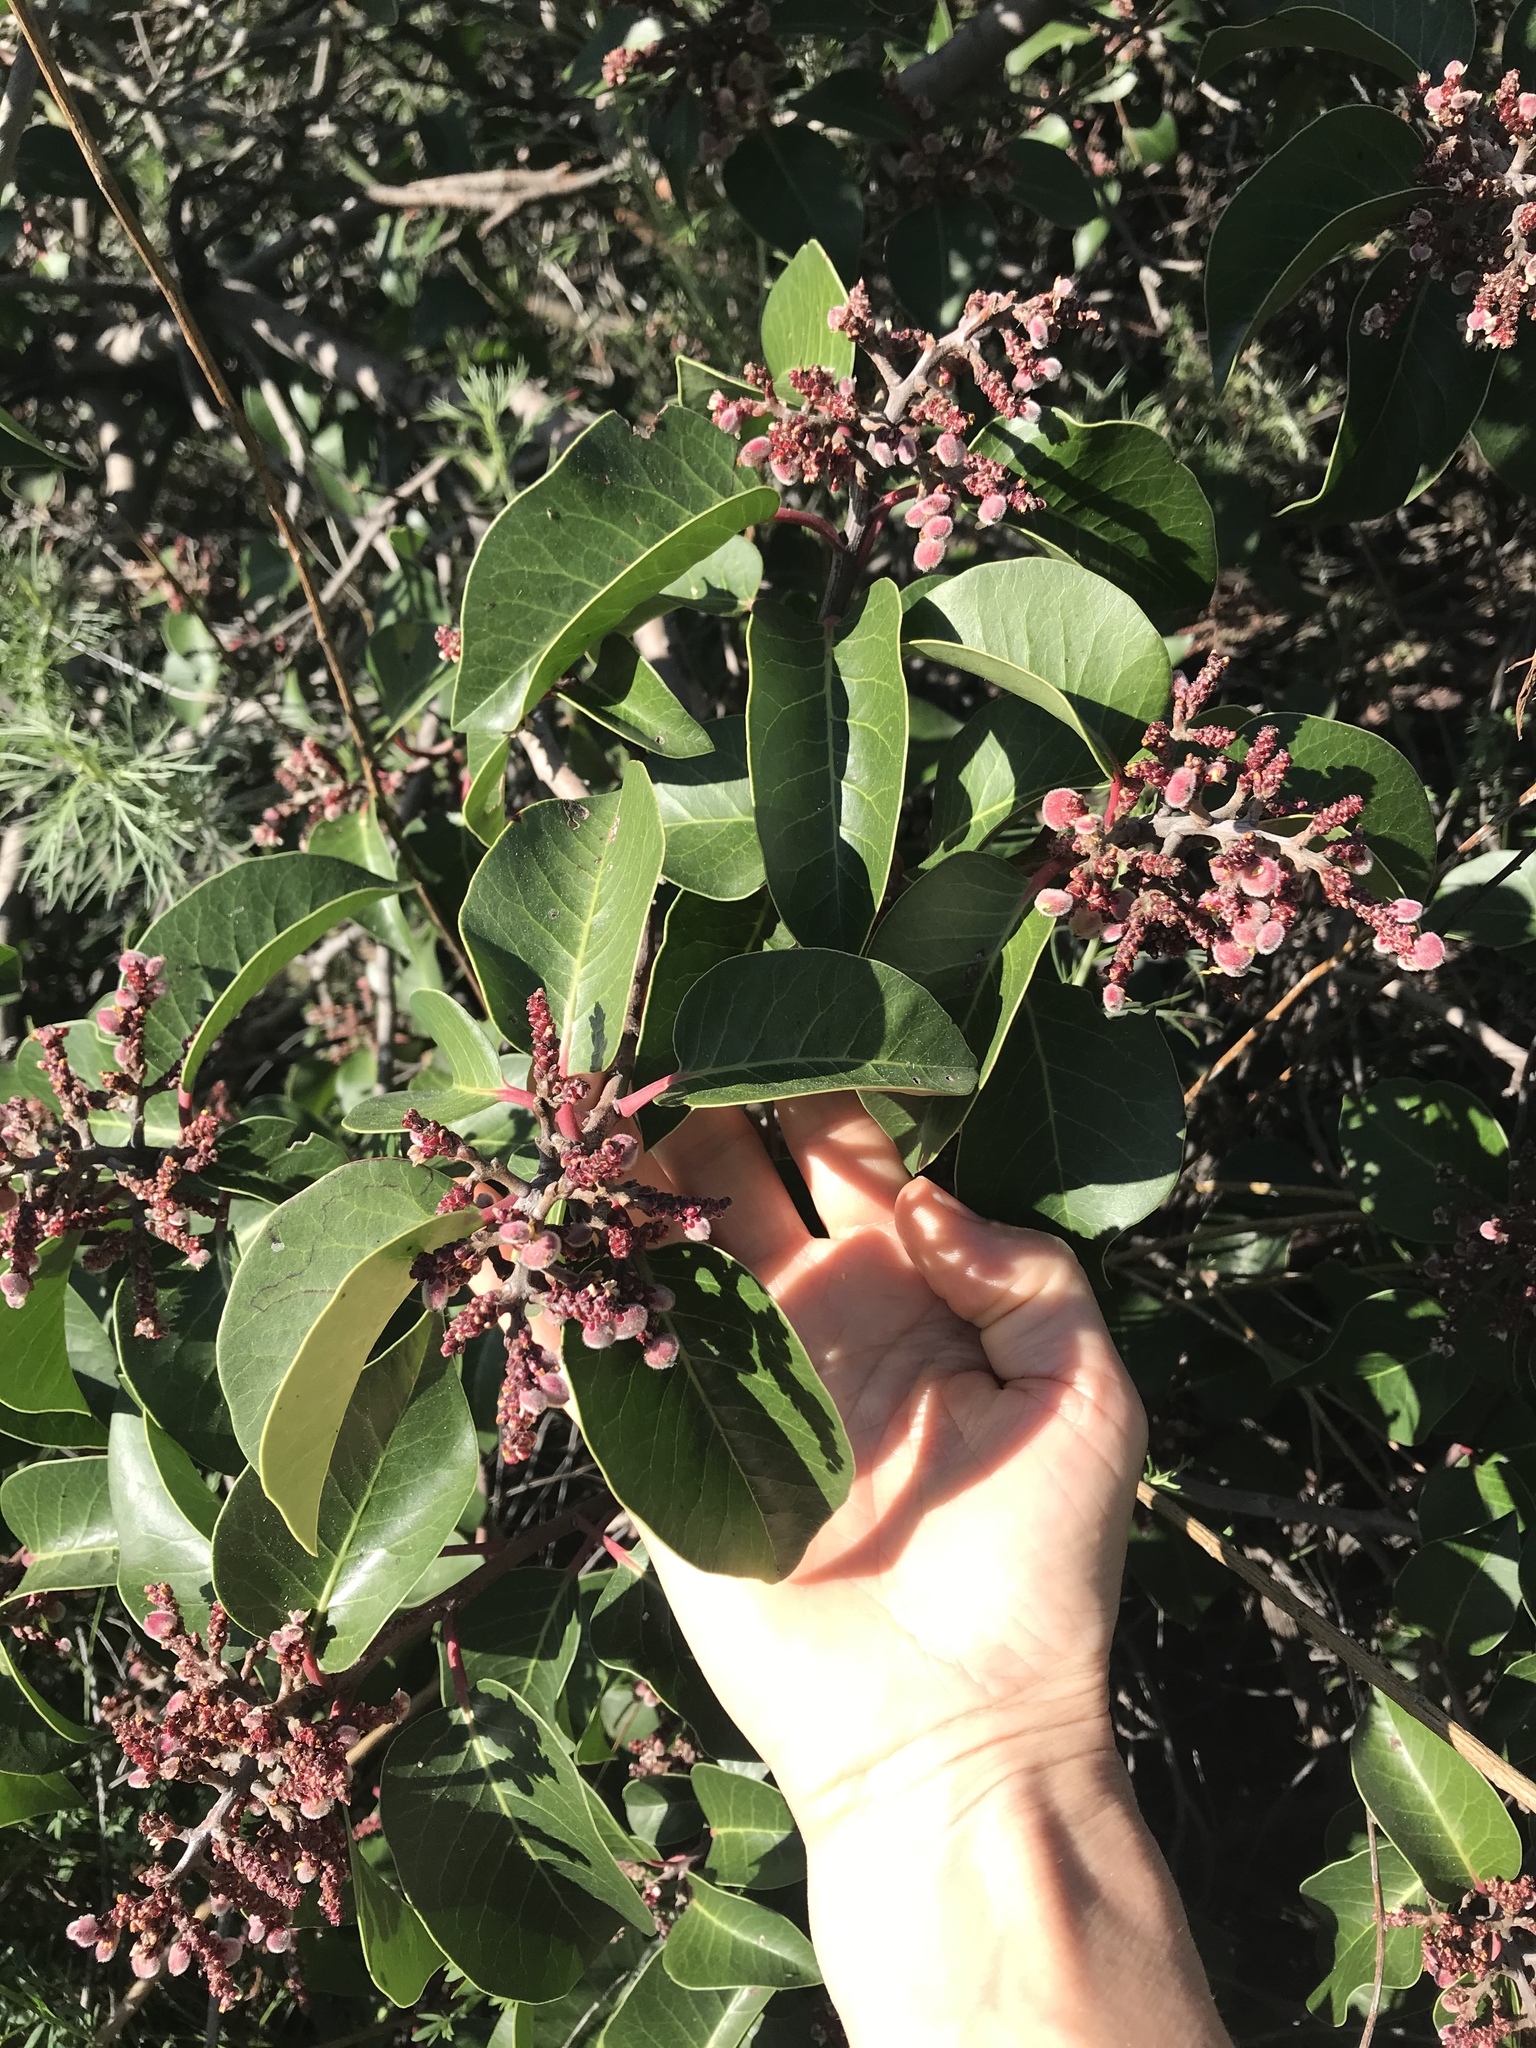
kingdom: Plantae
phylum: Tracheophyta
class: Magnoliopsida
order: Sapindales
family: Anacardiaceae
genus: Rhus
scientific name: Rhus ovata
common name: Sugar sumac
